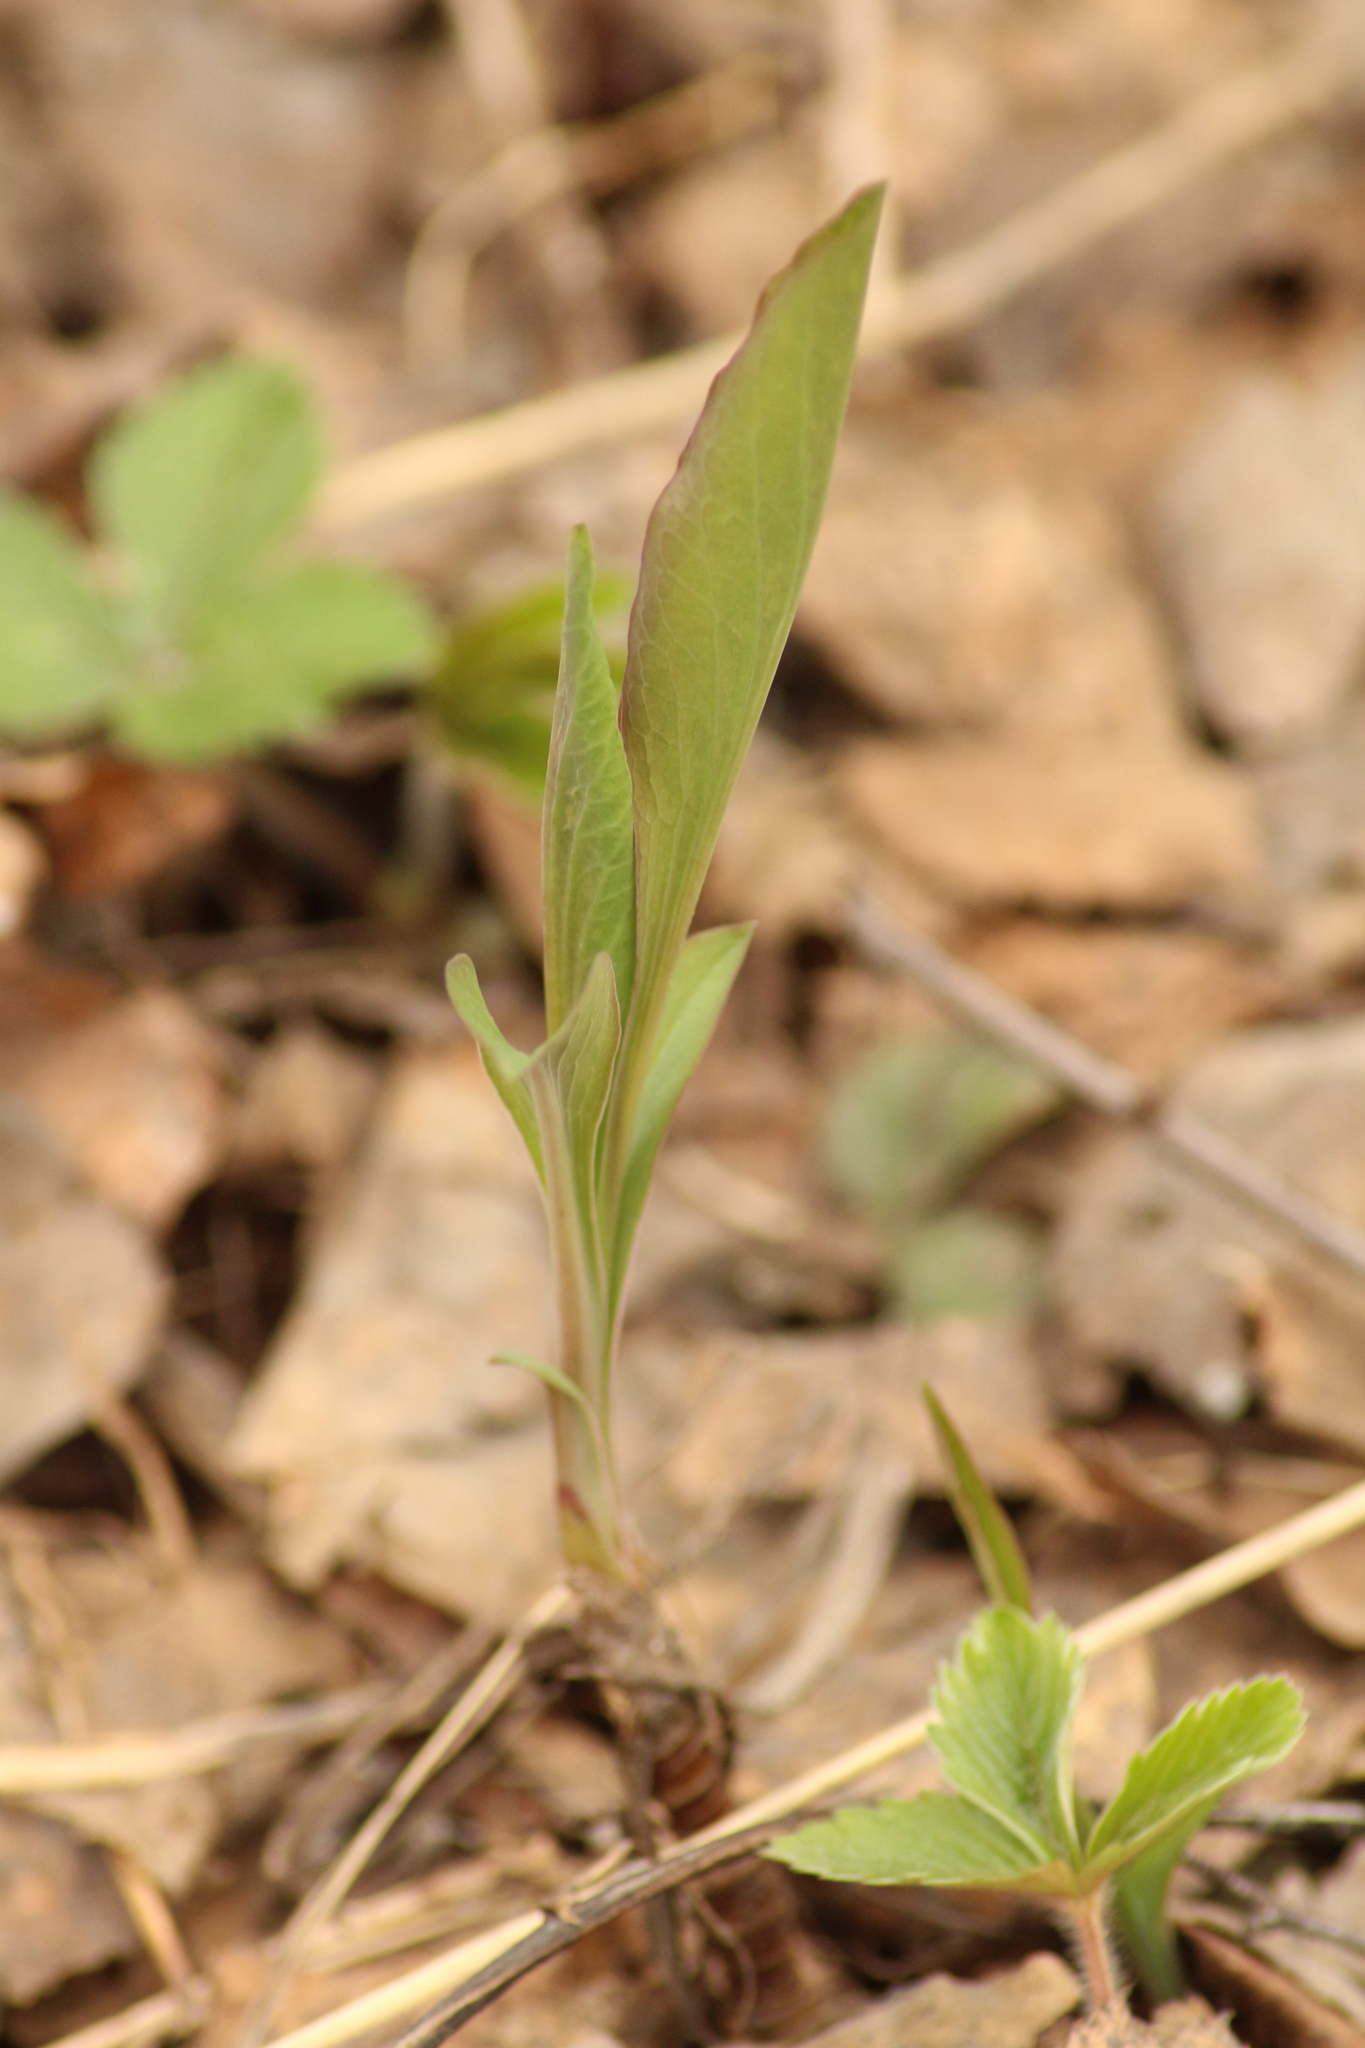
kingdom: Plantae
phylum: Tracheophyta
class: Magnoliopsida
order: Apiales
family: Apiaceae
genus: Bupleurum
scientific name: Bupleurum aureum
